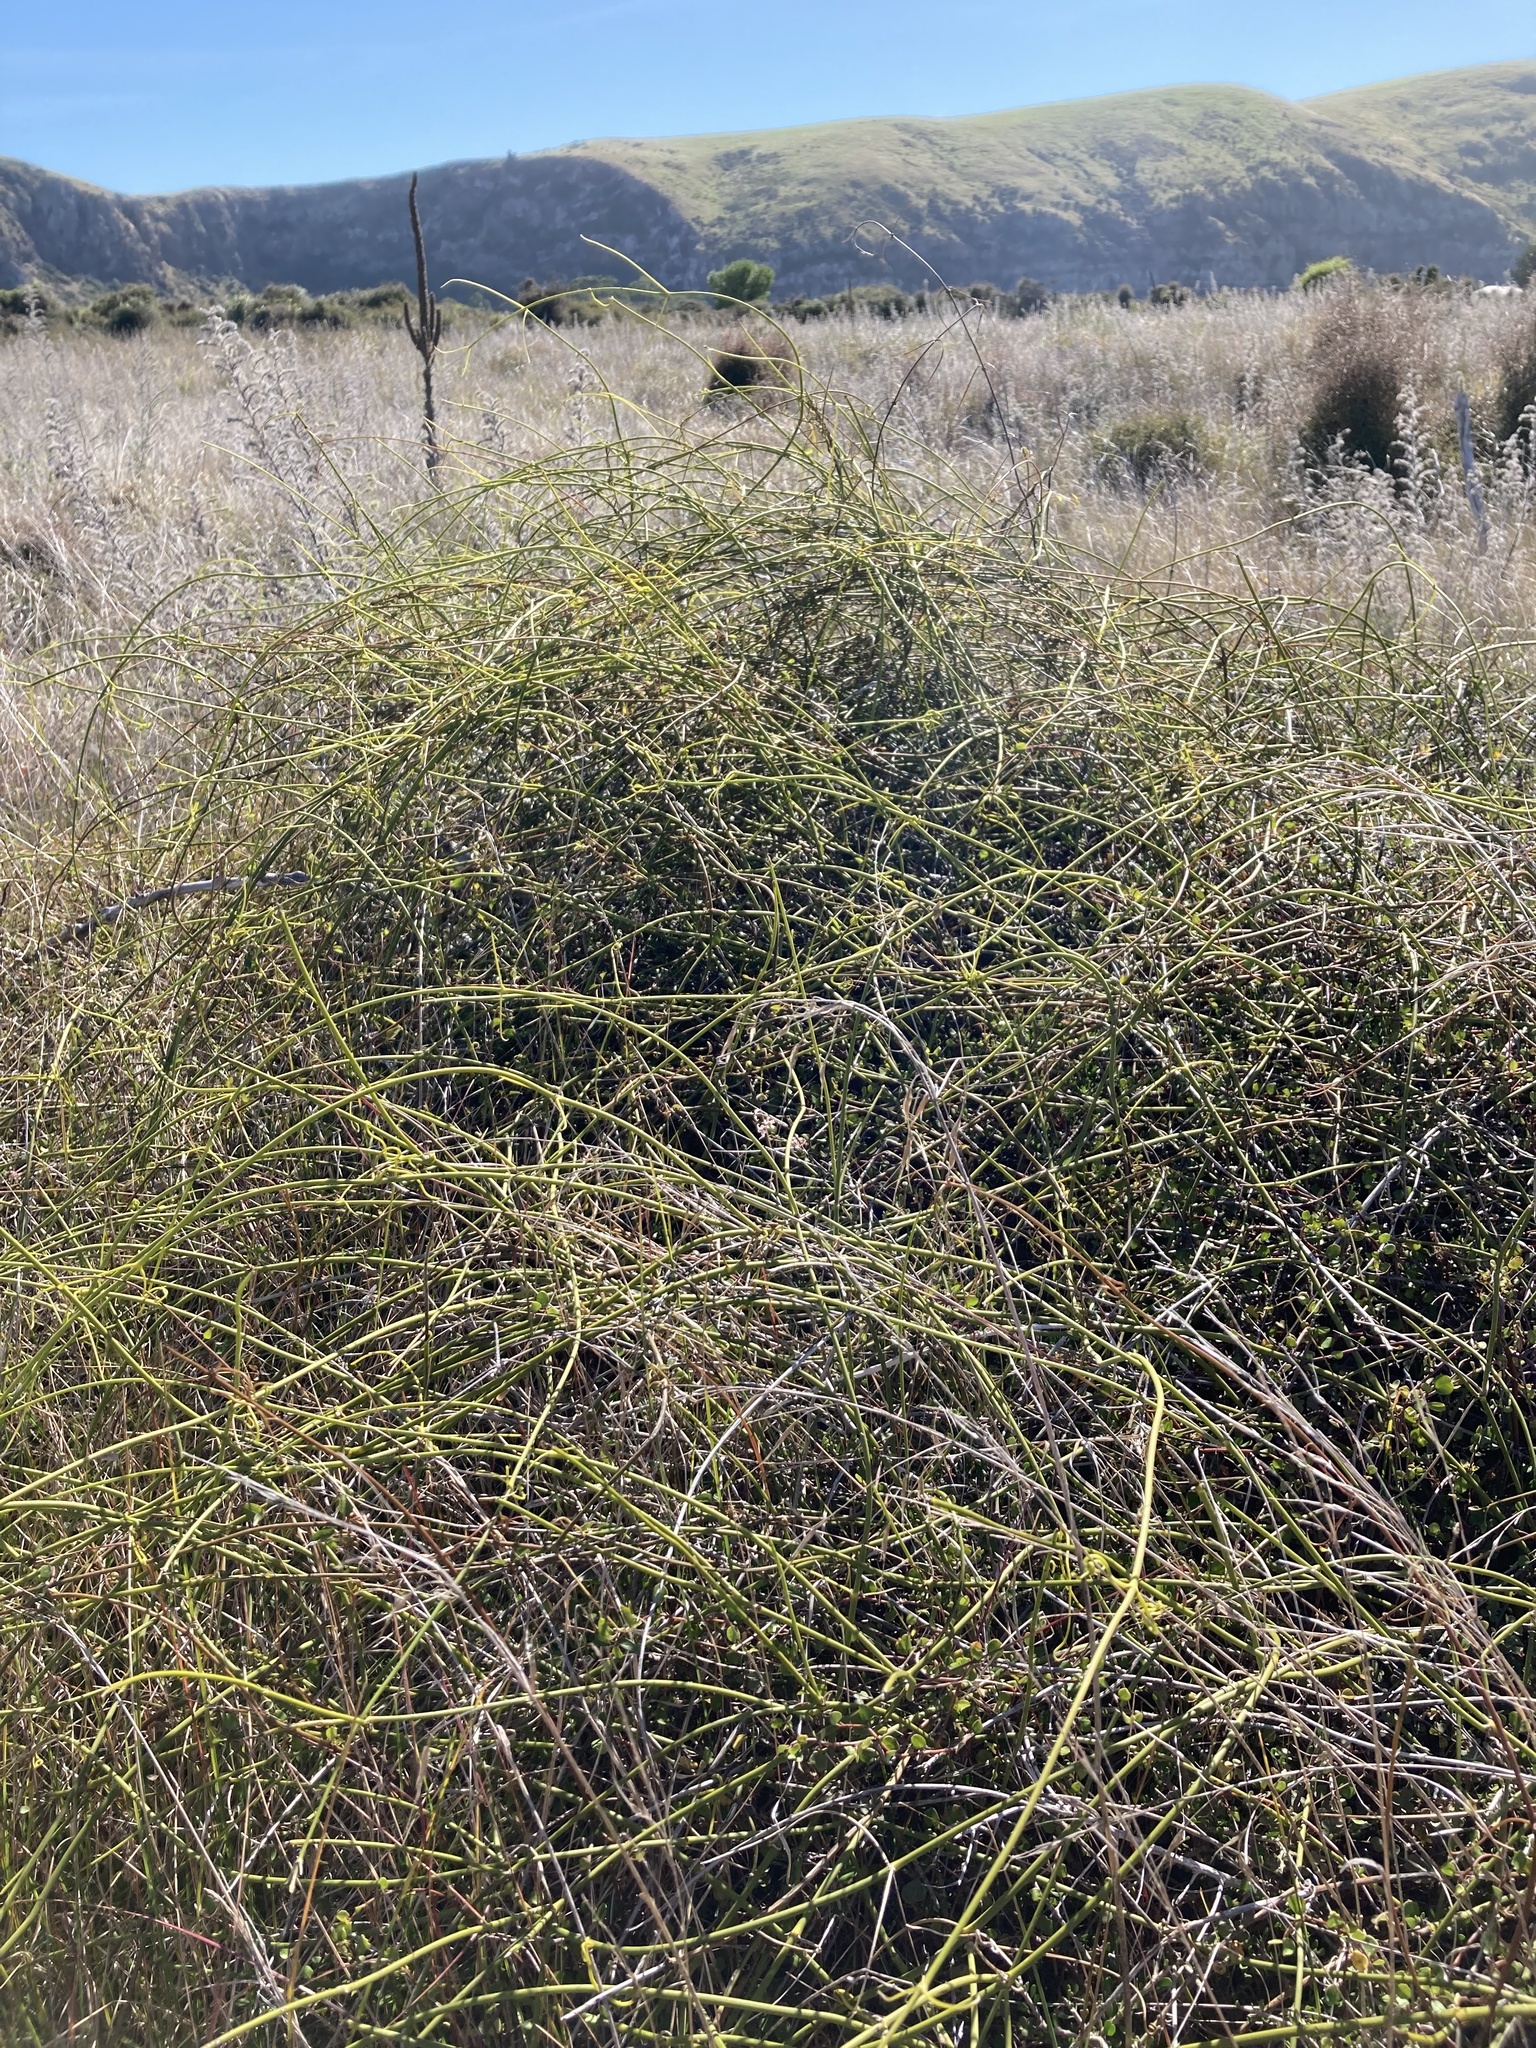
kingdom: Plantae
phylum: Tracheophyta
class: Magnoliopsida
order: Ranunculales
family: Ranunculaceae
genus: Clematis
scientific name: Clematis afoliata
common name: Rush-stem clematis
